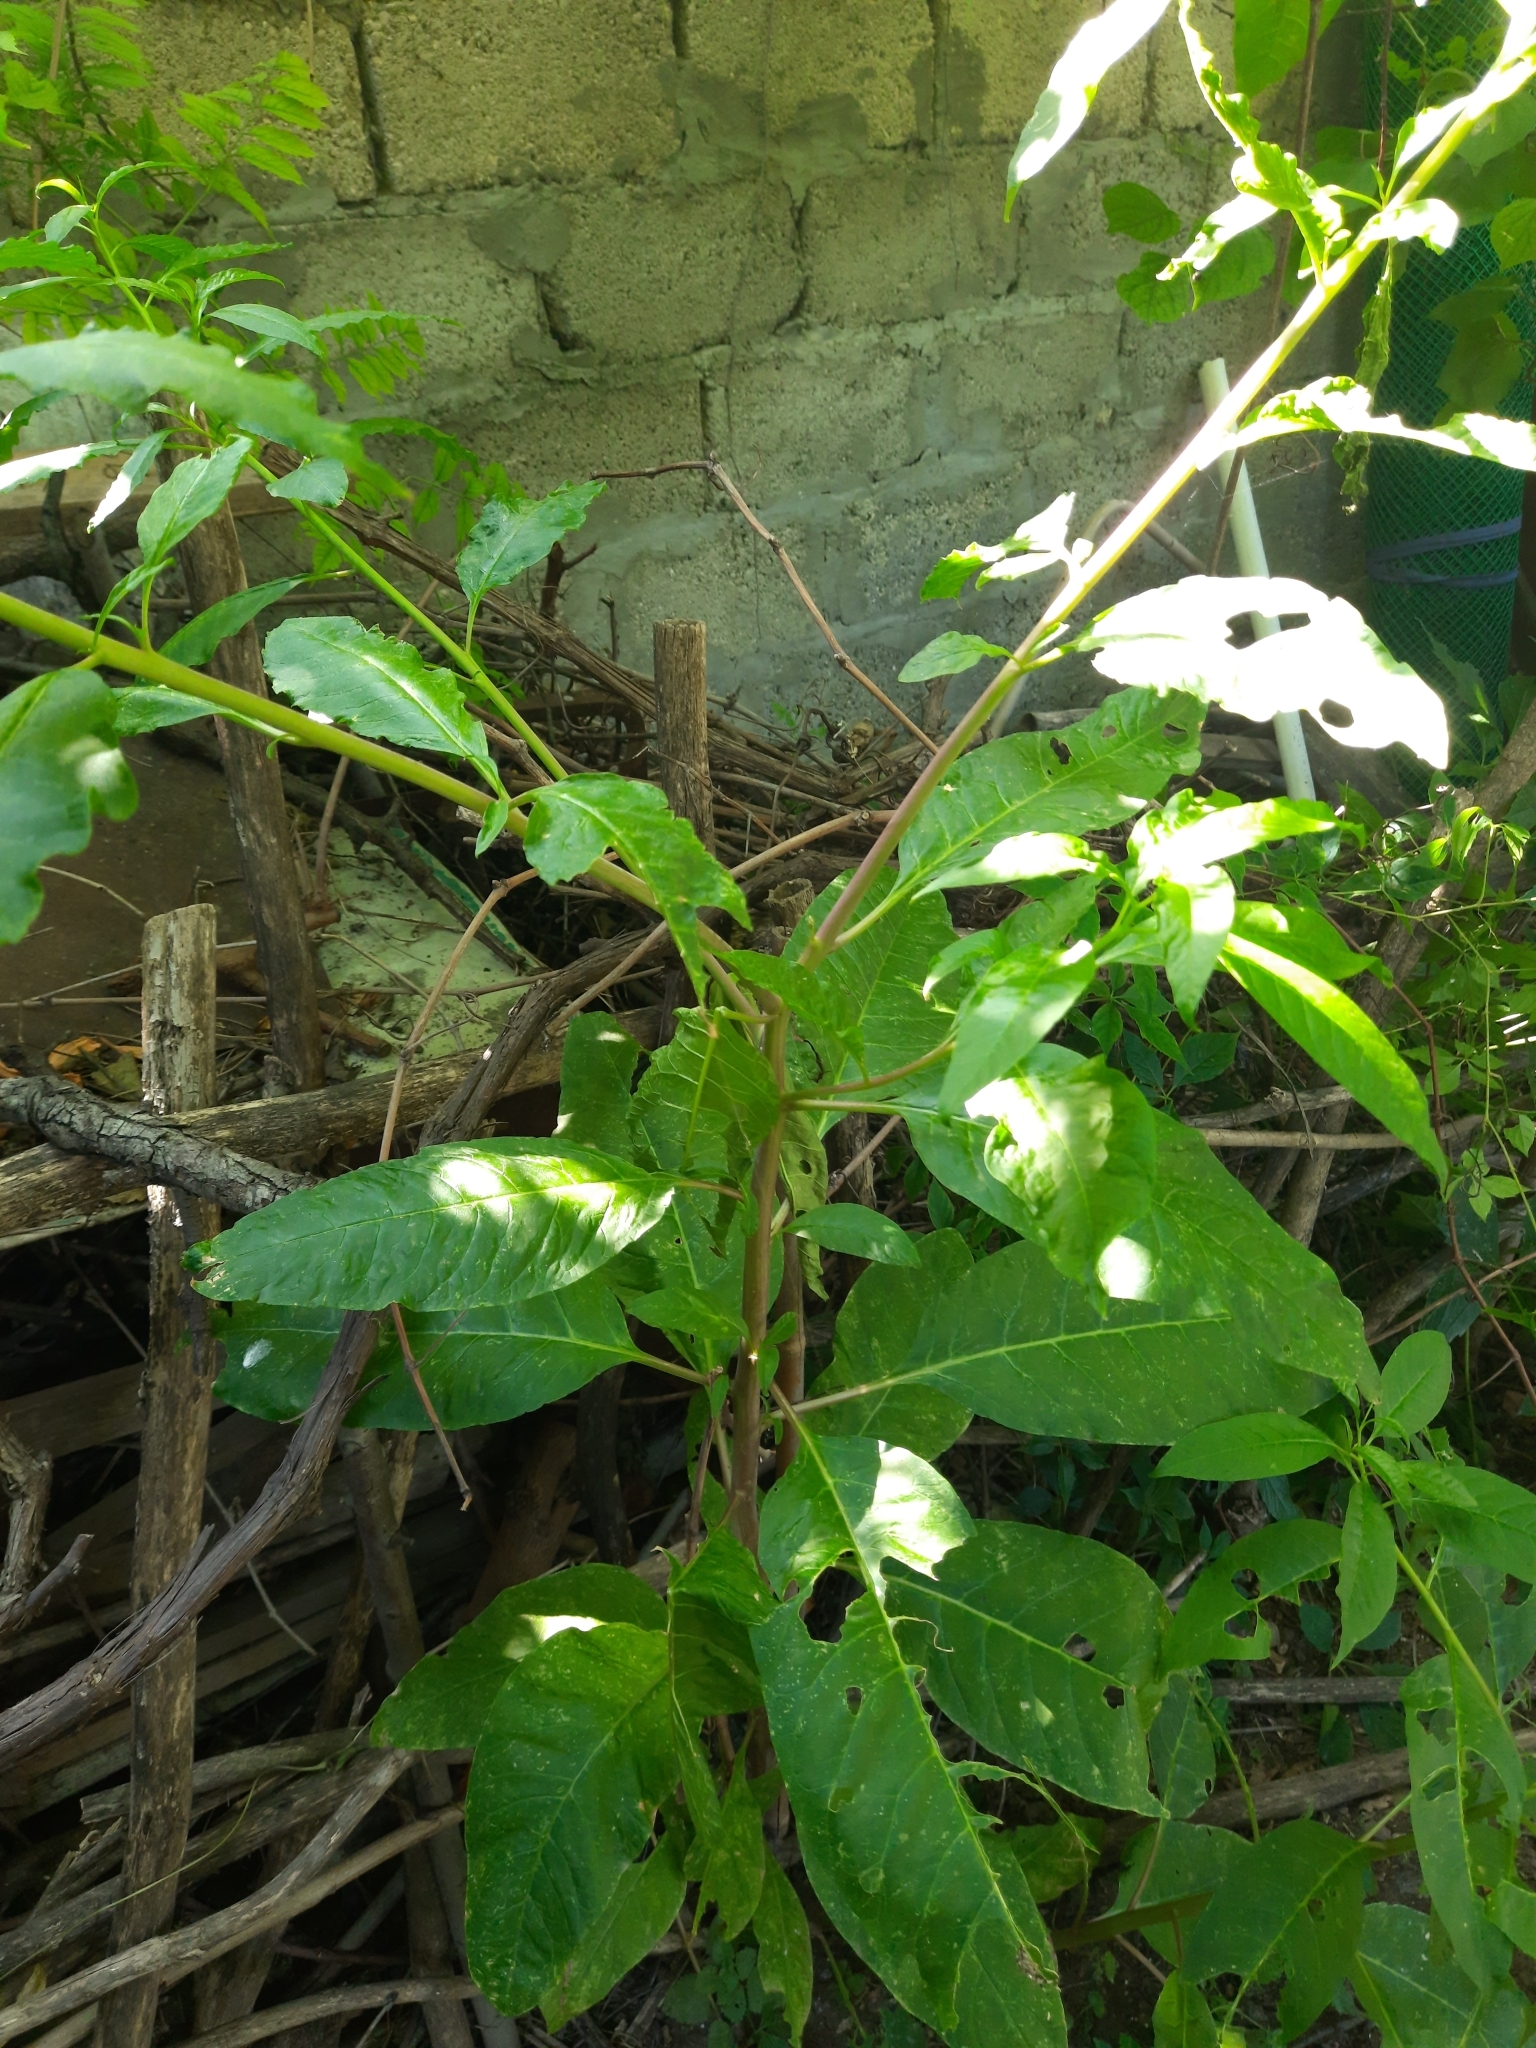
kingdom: Plantae
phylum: Tracheophyta
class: Magnoliopsida
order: Caryophyllales
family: Phytolaccaceae
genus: Phytolacca
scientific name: Phytolacca americana
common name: American pokeweed
